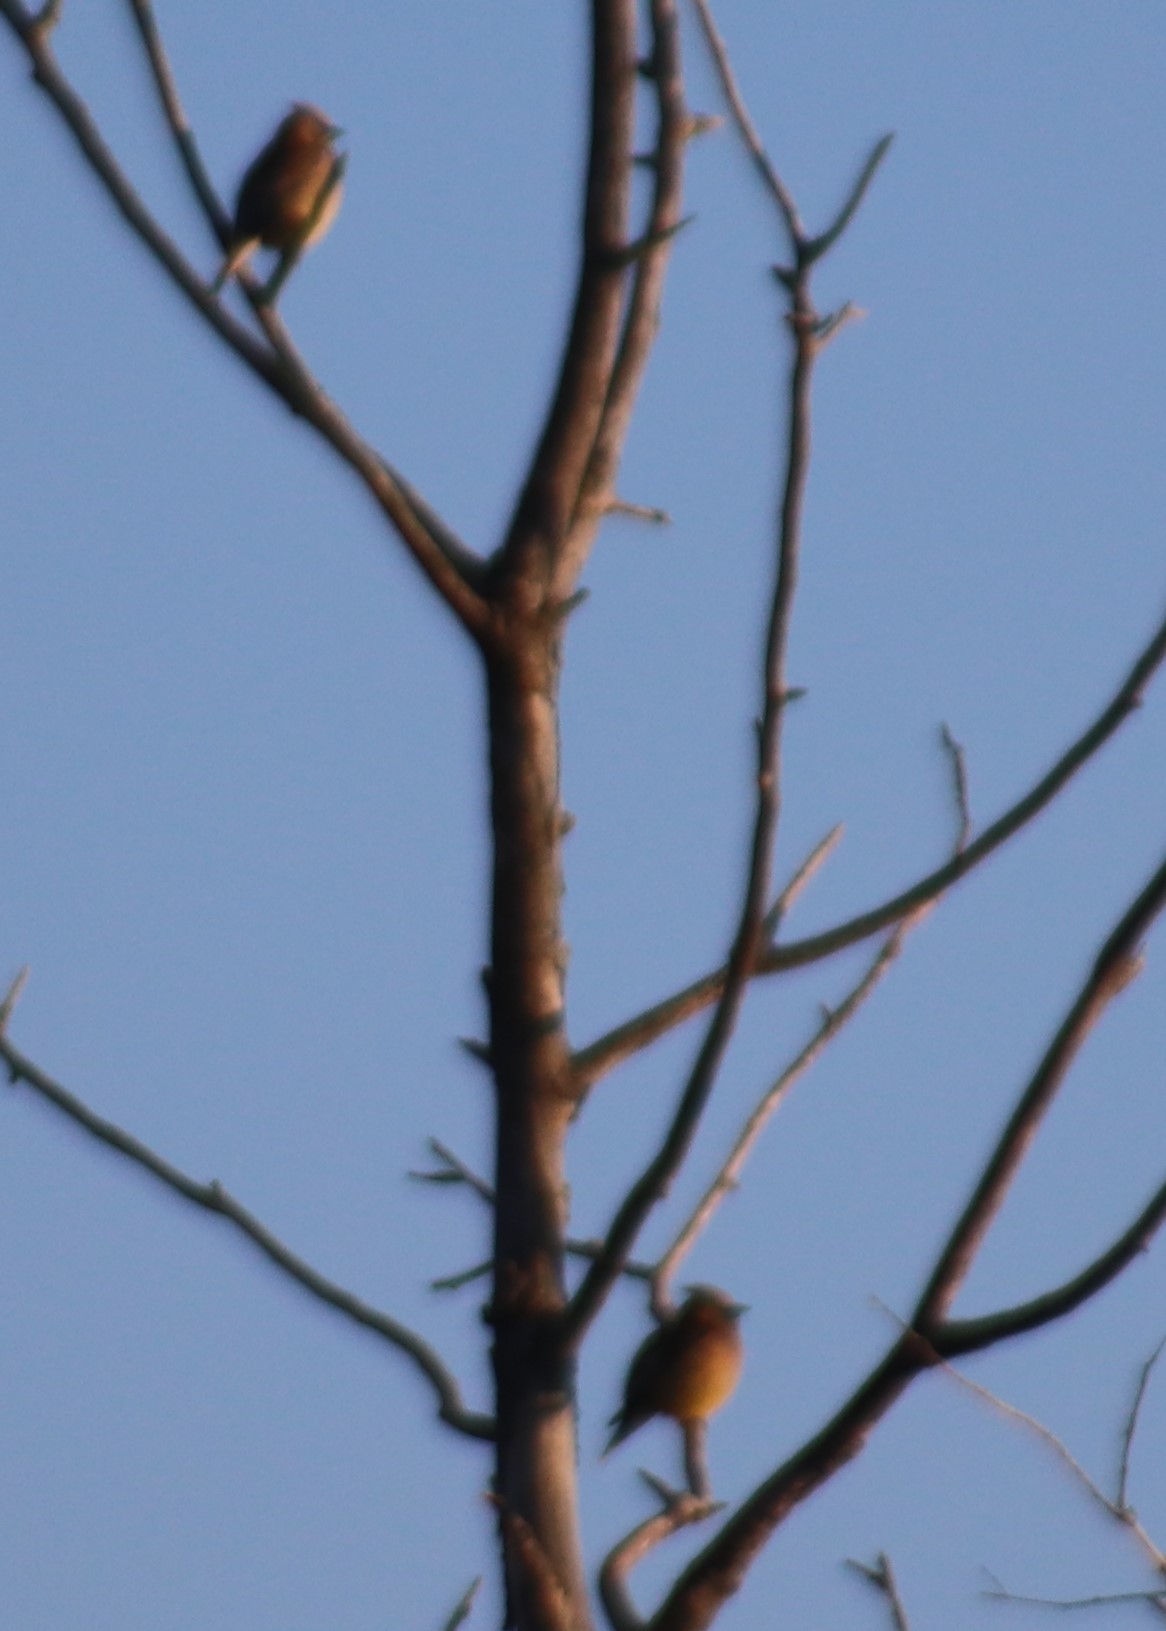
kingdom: Animalia
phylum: Chordata
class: Aves
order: Passeriformes
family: Bombycillidae
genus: Bombycilla
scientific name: Bombycilla cedrorum
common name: Cedar waxwing
